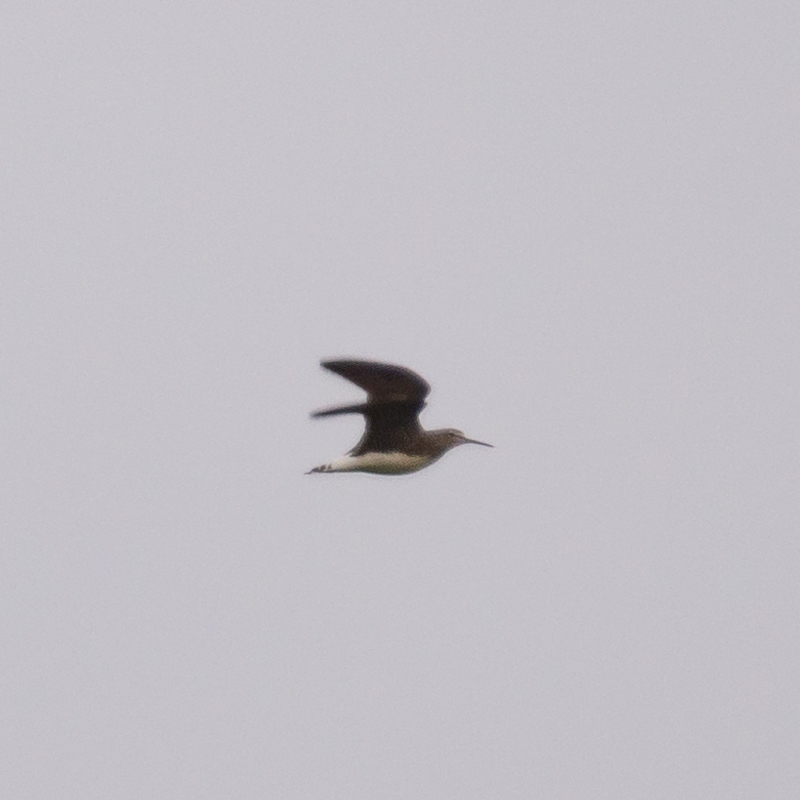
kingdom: Animalia
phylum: Chordata
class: Aves
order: Charadriiformes
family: Scolopacidae
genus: Tringa
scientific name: Tringa ochropus
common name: Green sandpiper
